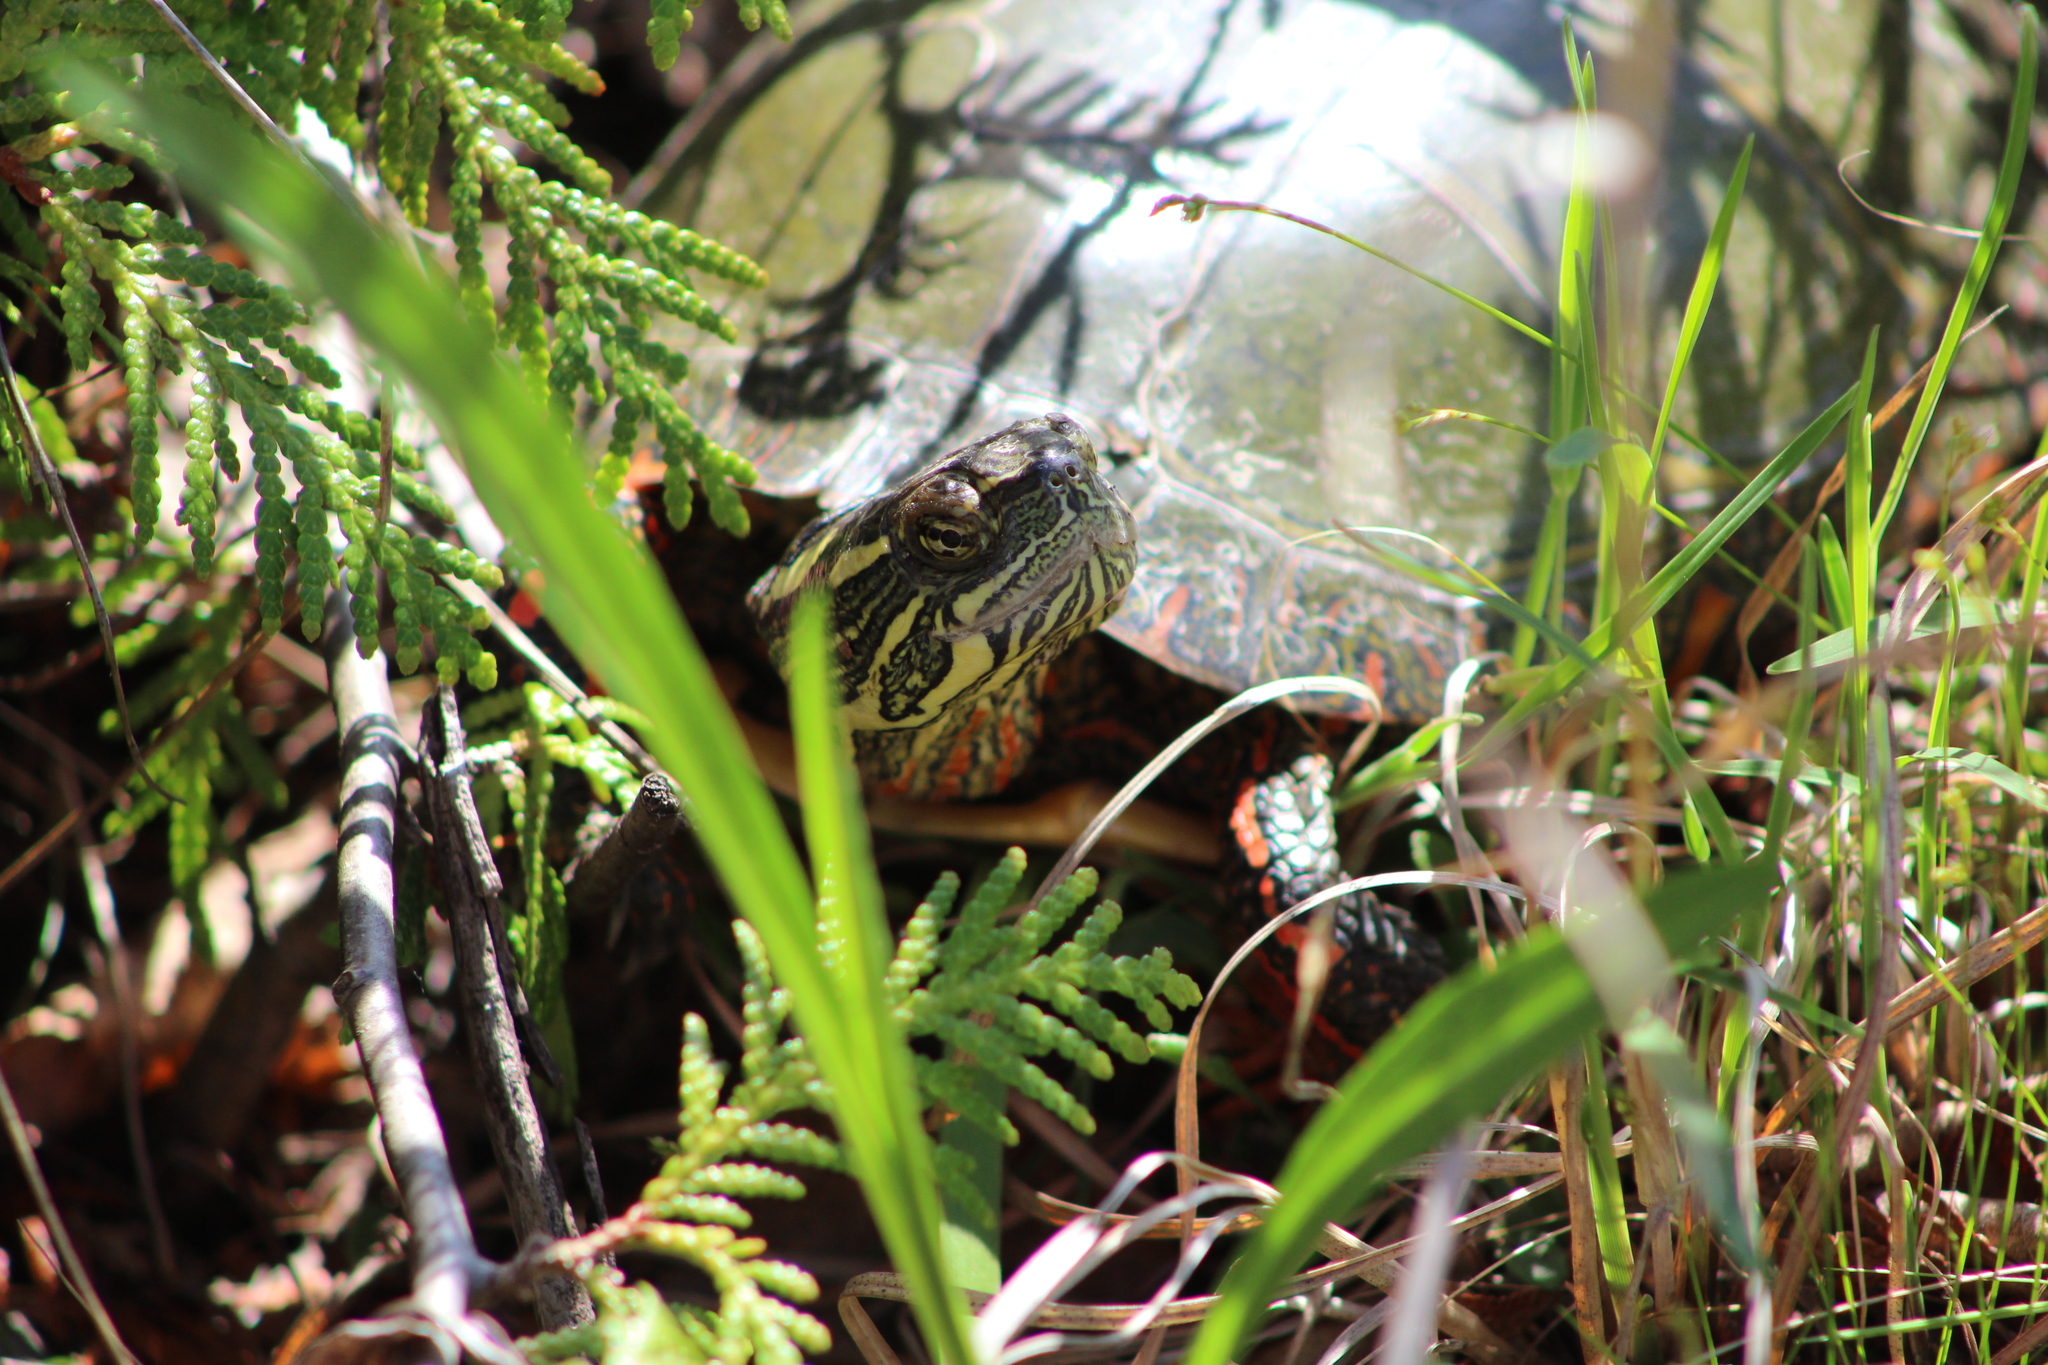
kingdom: Animalia
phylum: Chordata
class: Testudines
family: Emydidae
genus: Chrysemys
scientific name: Chrysemys picta
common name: Painted turtle
